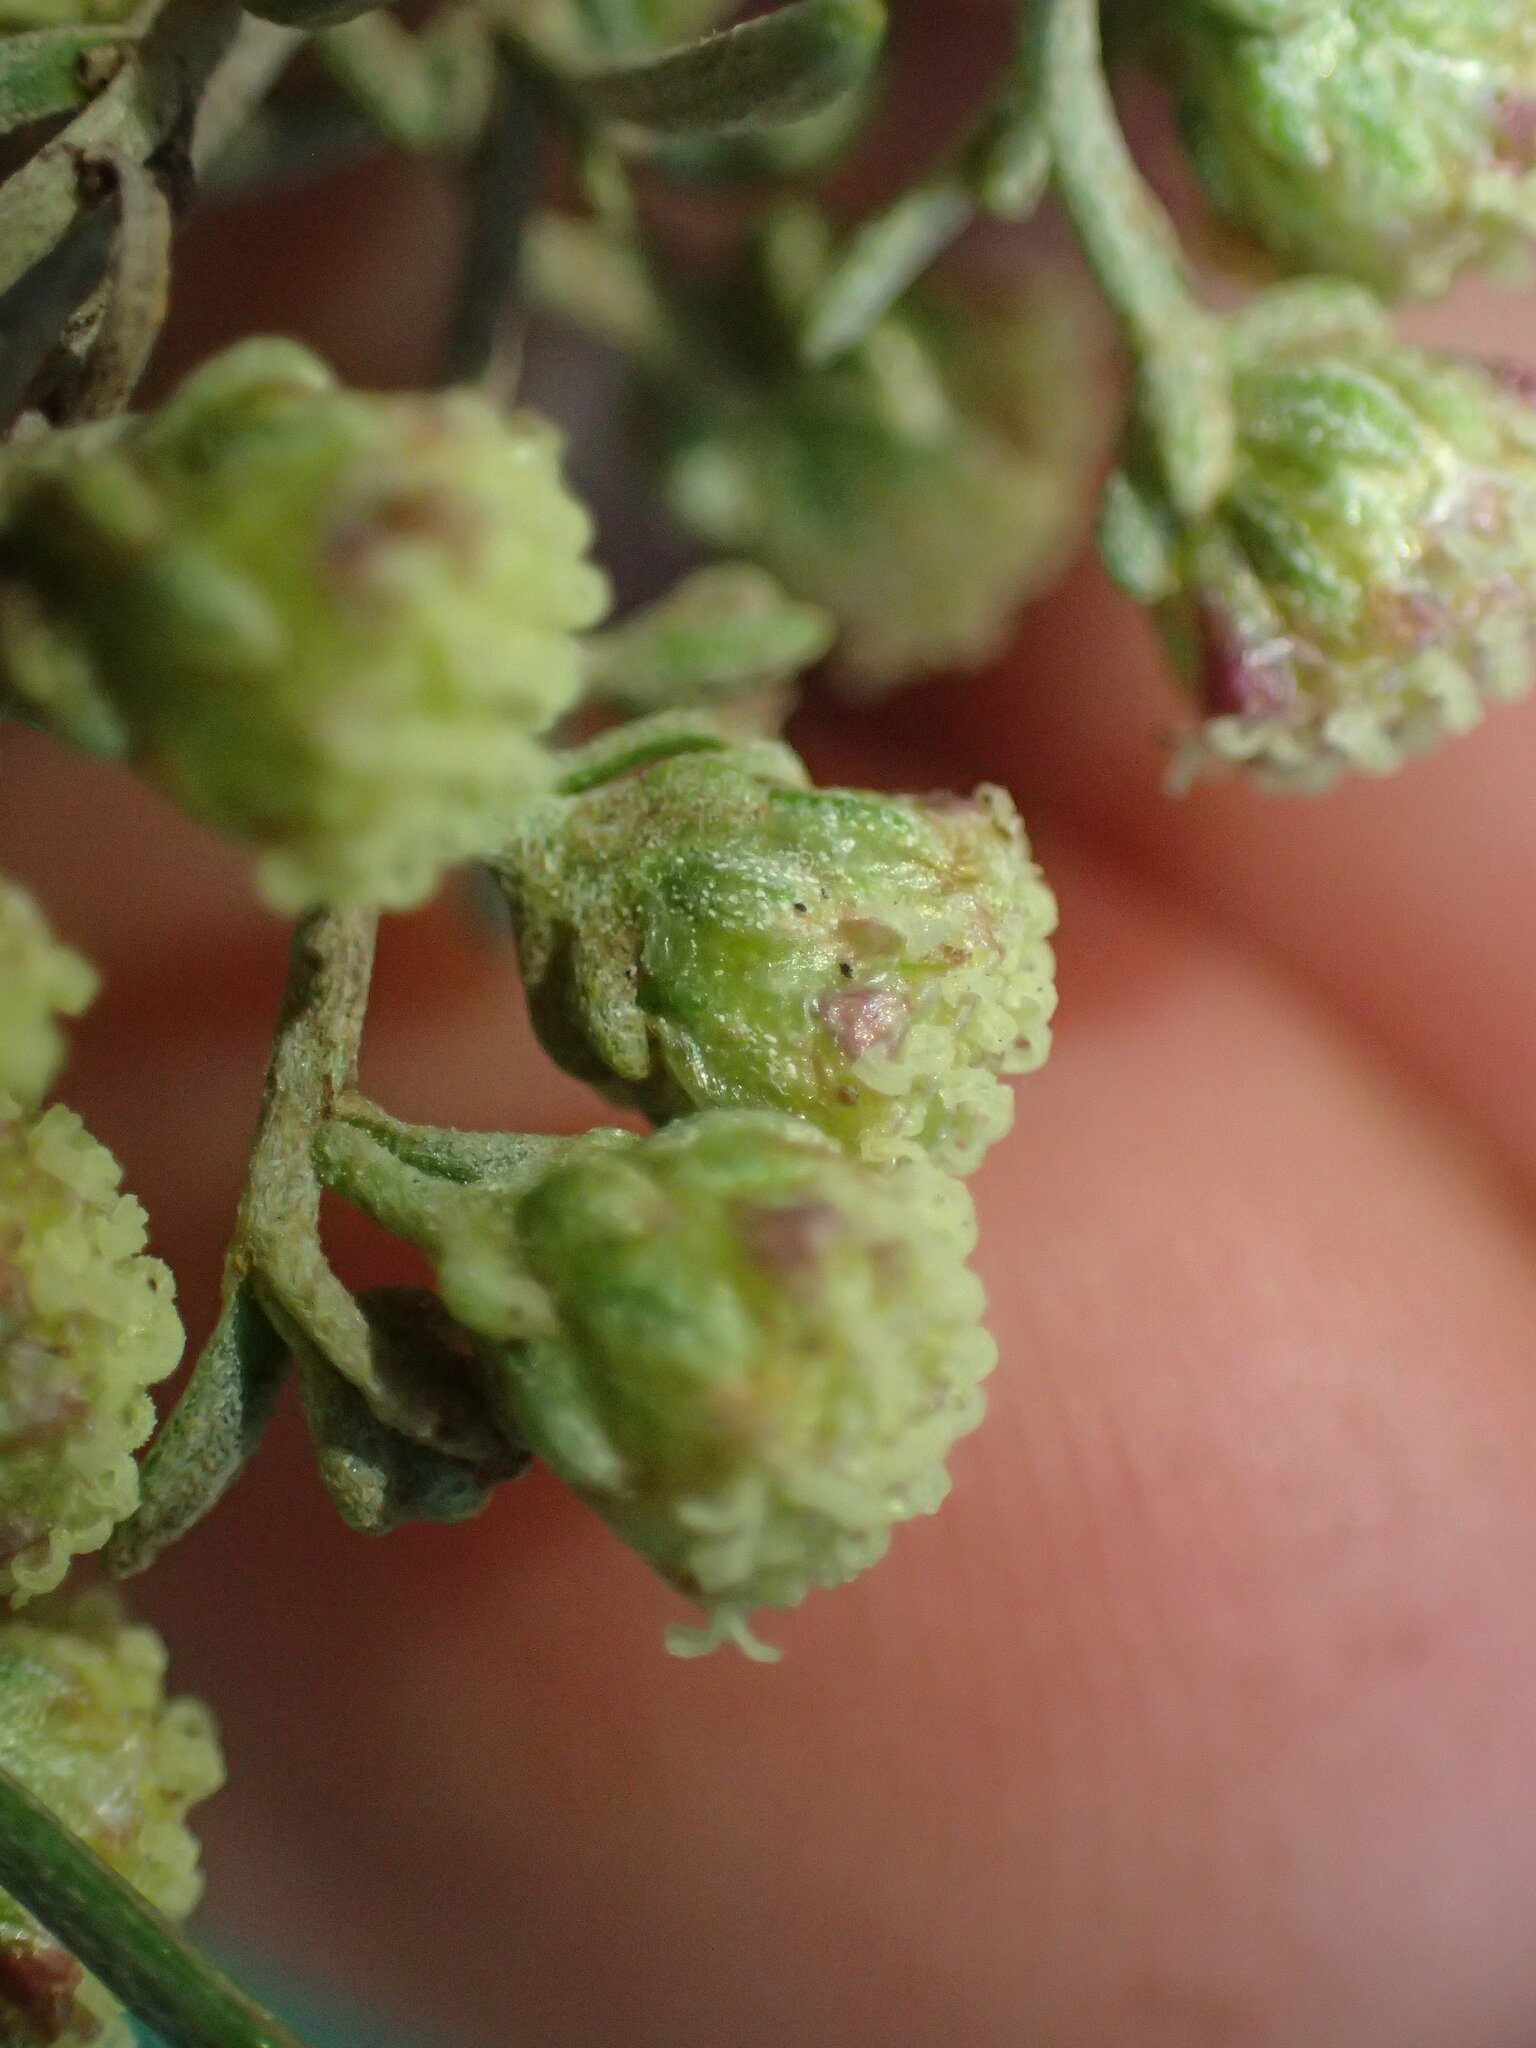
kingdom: Plantae
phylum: Tracheophyta
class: Magnoliopsida
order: Asterales
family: Asteraceae
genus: Artemisia
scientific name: Artemisia californica
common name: California sagebrush
